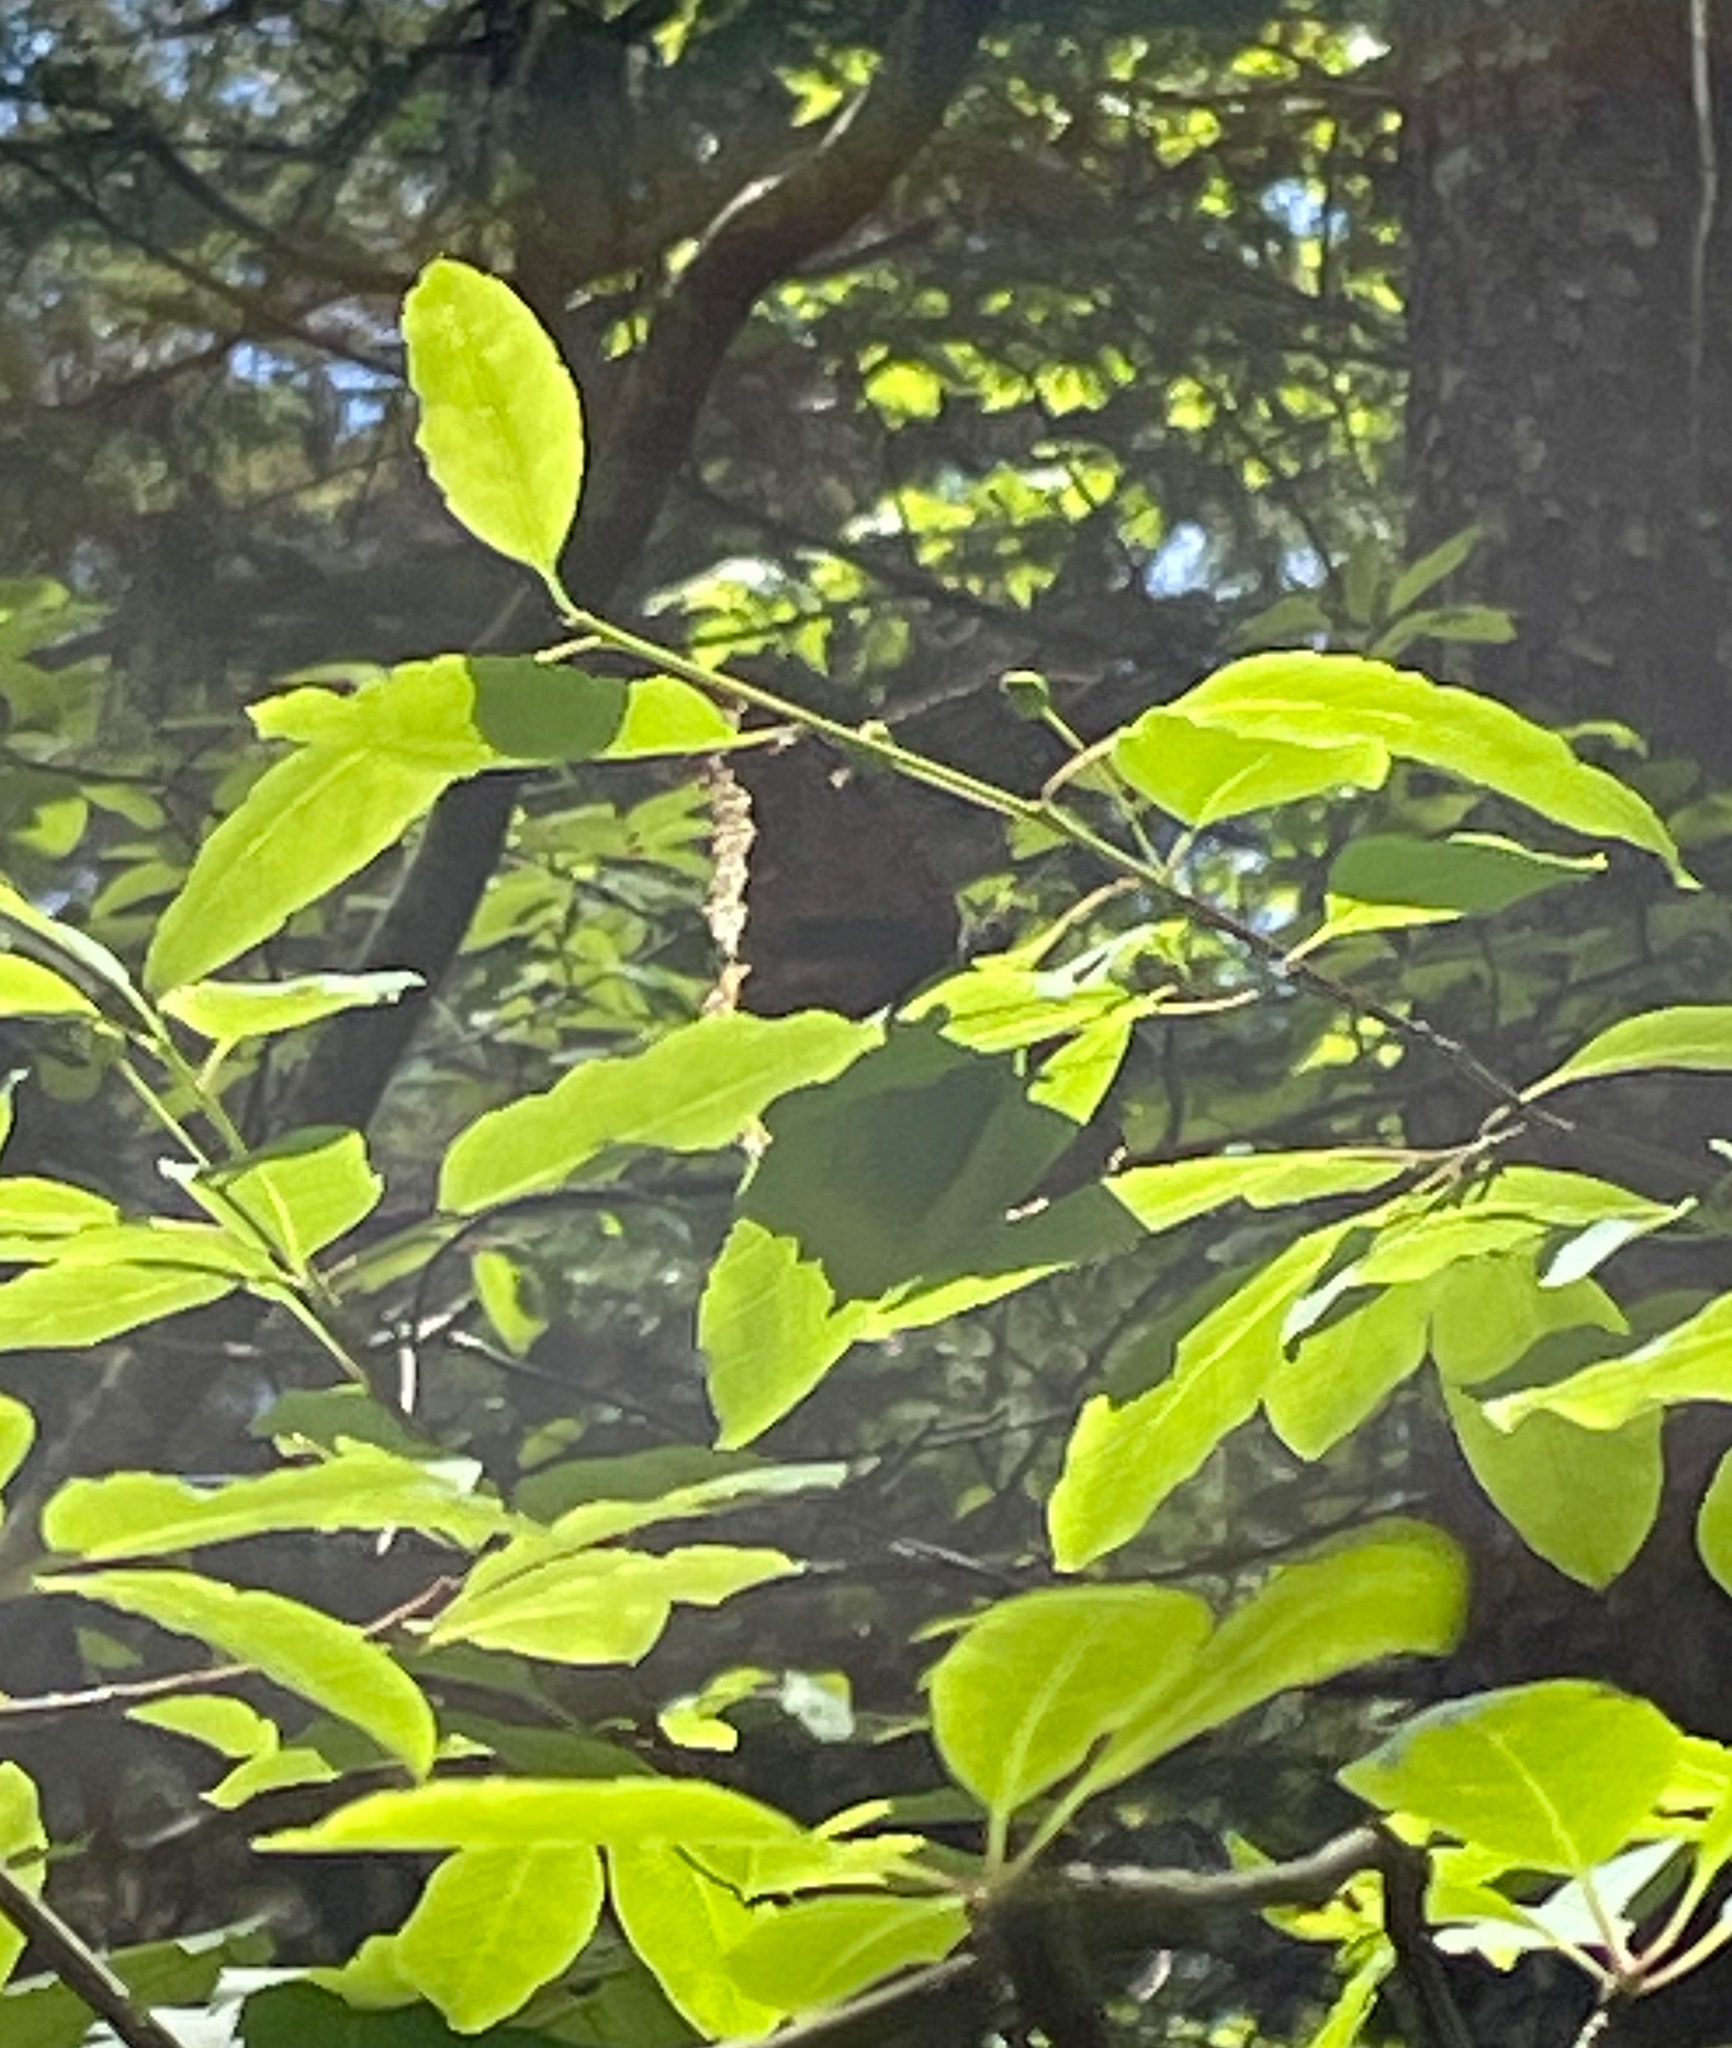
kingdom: Animalia
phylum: Arthropoda
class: Insecta
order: Lepidoptera
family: Nymphalidae
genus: Nymphalis
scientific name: Nymphalis antiopa
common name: Camberwell beauty
